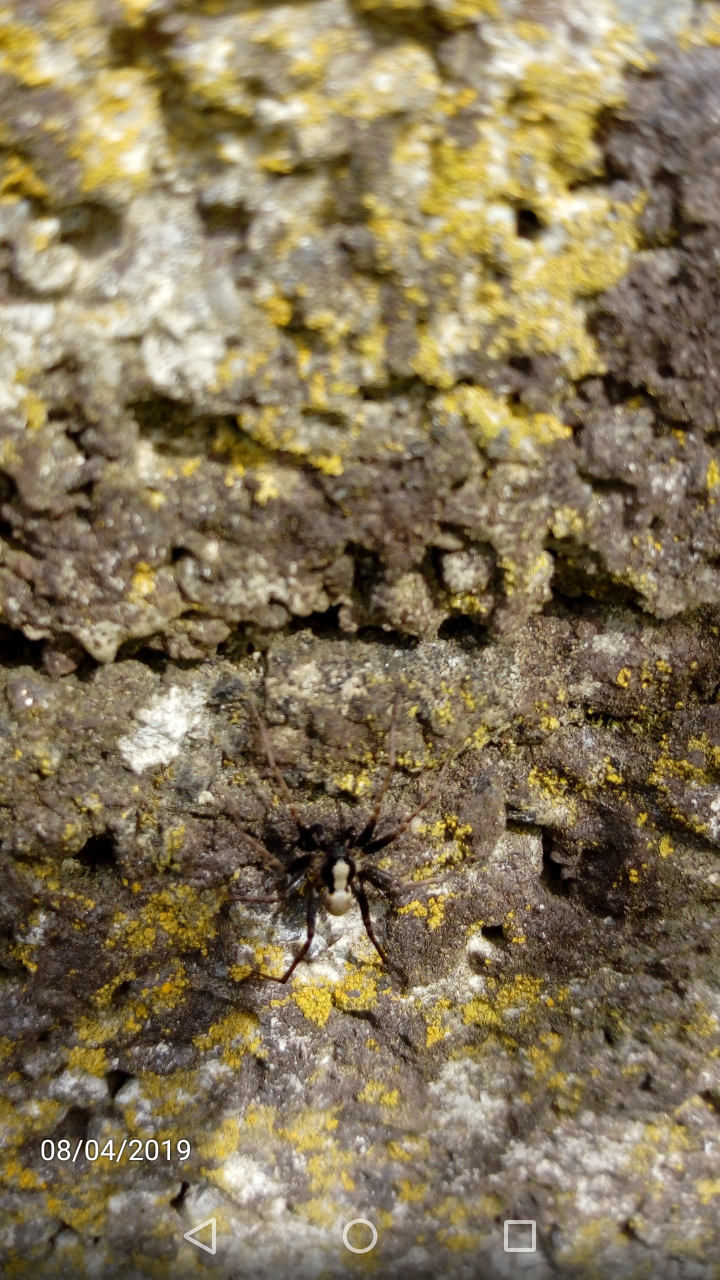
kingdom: Animalia
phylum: Arthropoda
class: Arachnida
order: Araneae
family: Lycosidae
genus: Pardosa
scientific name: Pardosa
